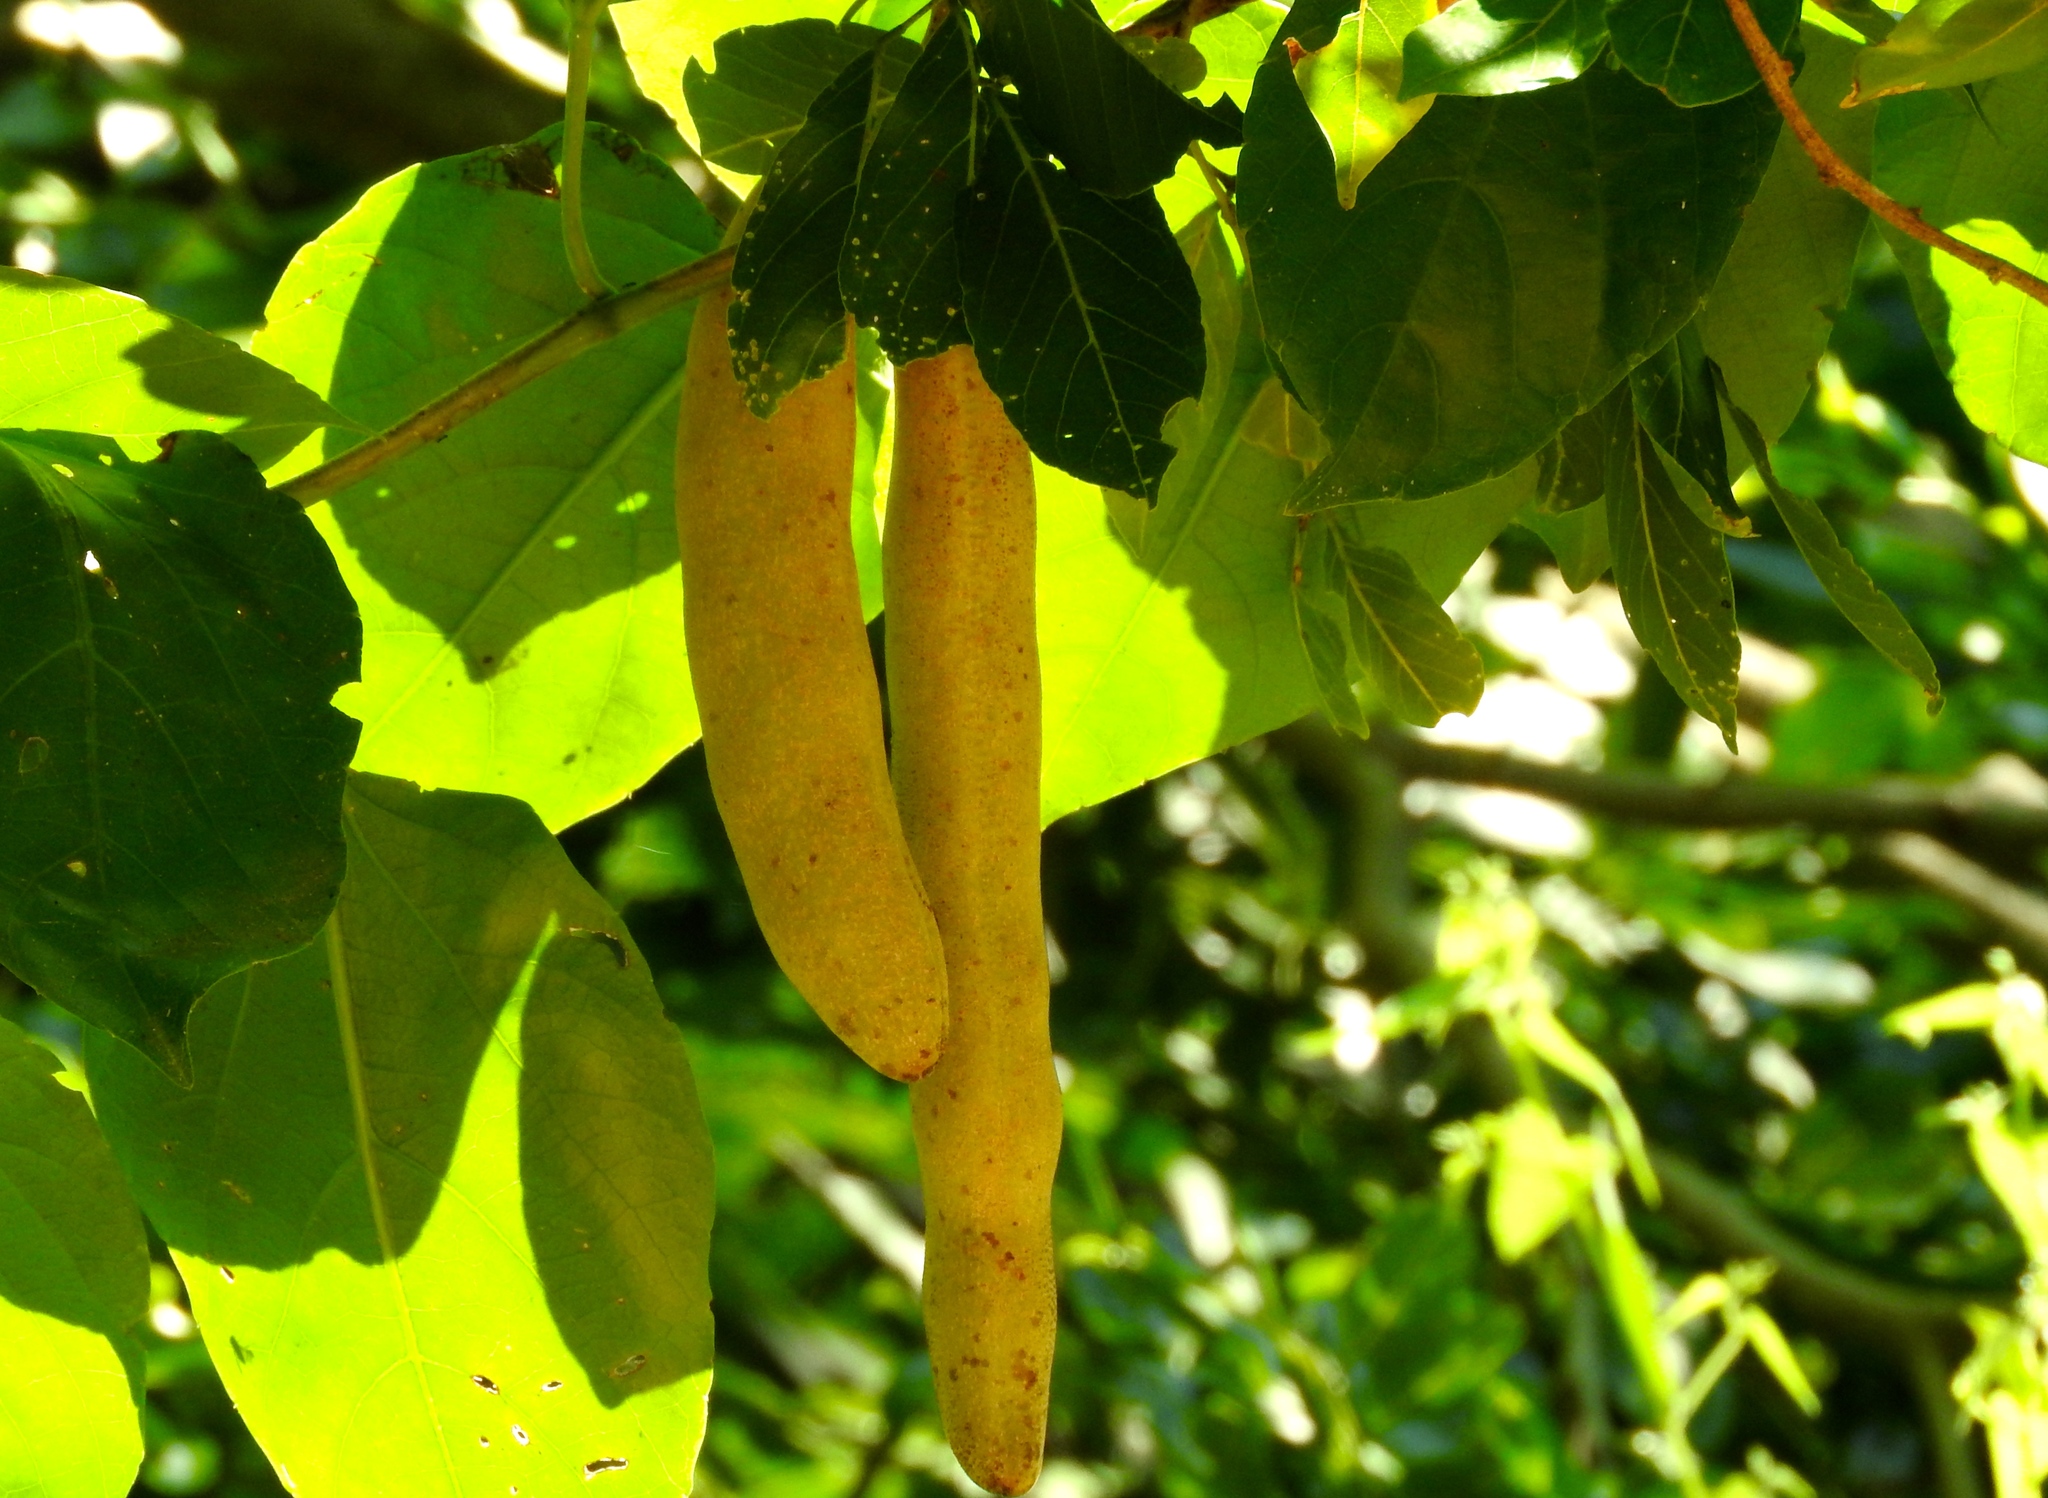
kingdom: Plantae
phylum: Tracheophyta
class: Magnoliopsida
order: Lamiales
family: Bignoniaceae
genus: Adenocalymma
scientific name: Adenocalymma inundatum
